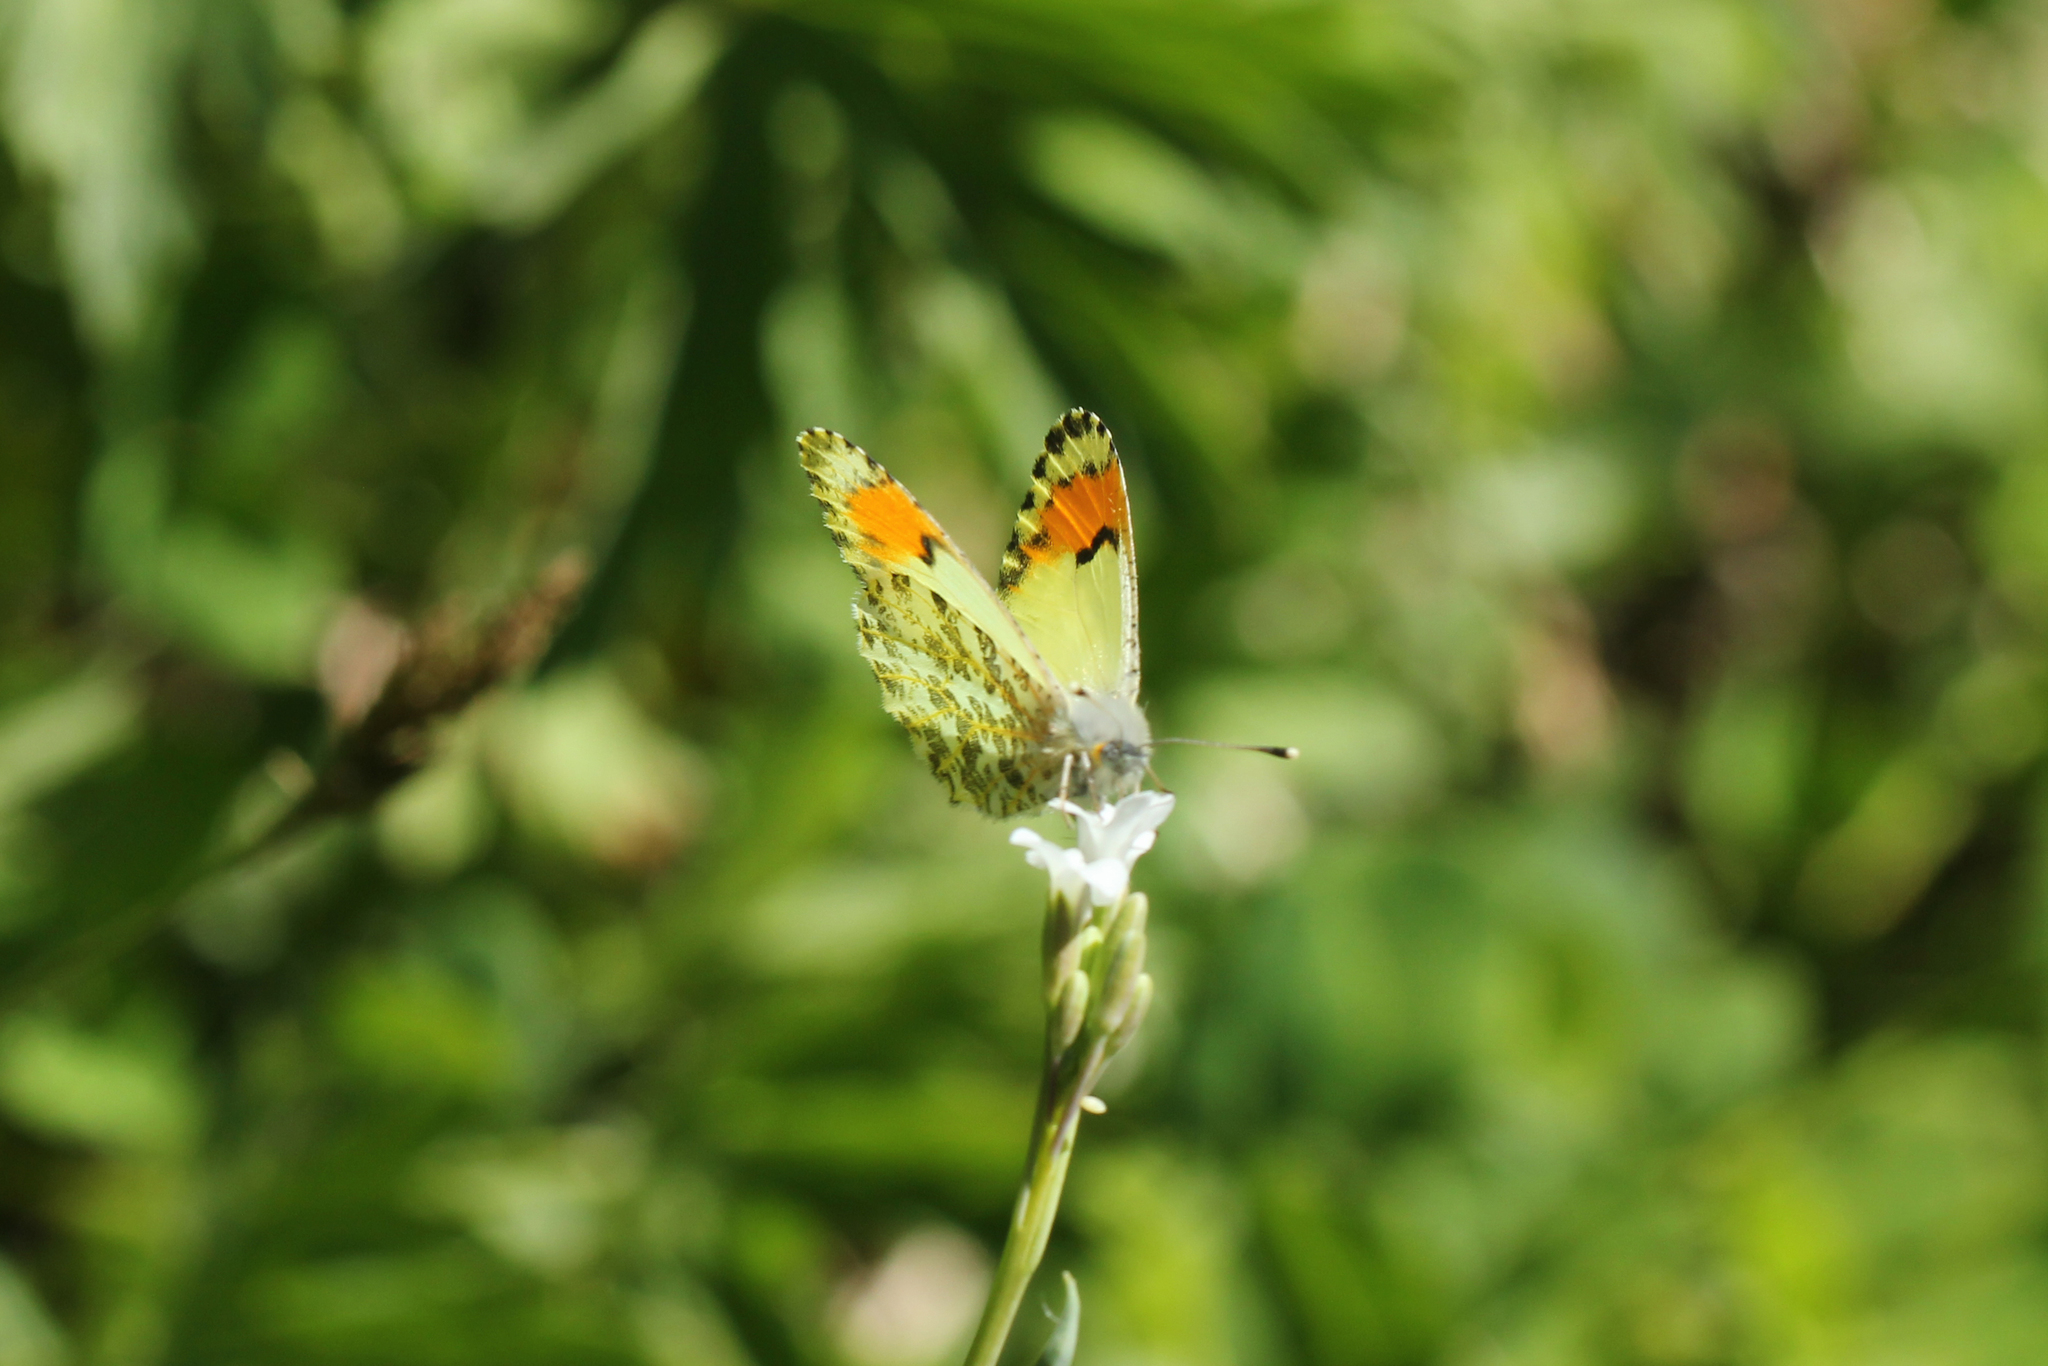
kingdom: Animalia
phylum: Arthropoda
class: Insecta
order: Lepidoptera
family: Pieridae
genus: Anthocharis
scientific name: Anthocharis julia
